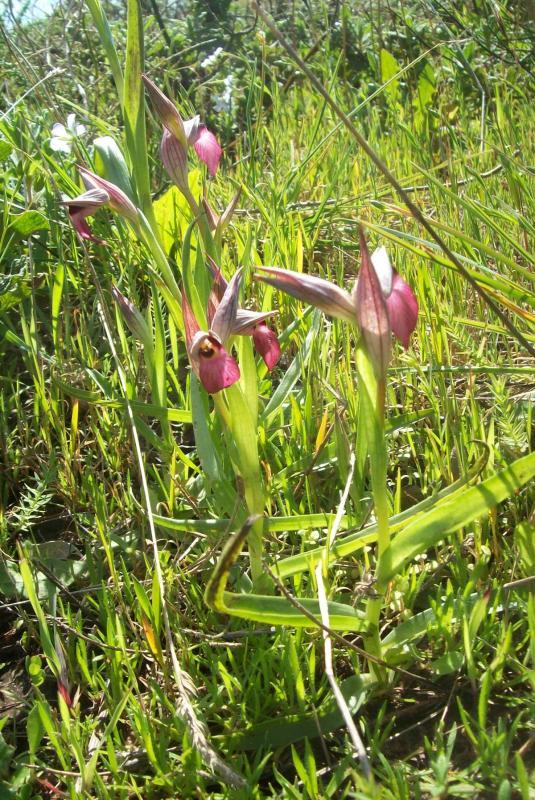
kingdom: Plantae
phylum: Tracheophyta
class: Liliopsida
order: Asparagales
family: Orchidaceae
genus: Serapias
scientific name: Serapias lingua
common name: Tongue-orchid
